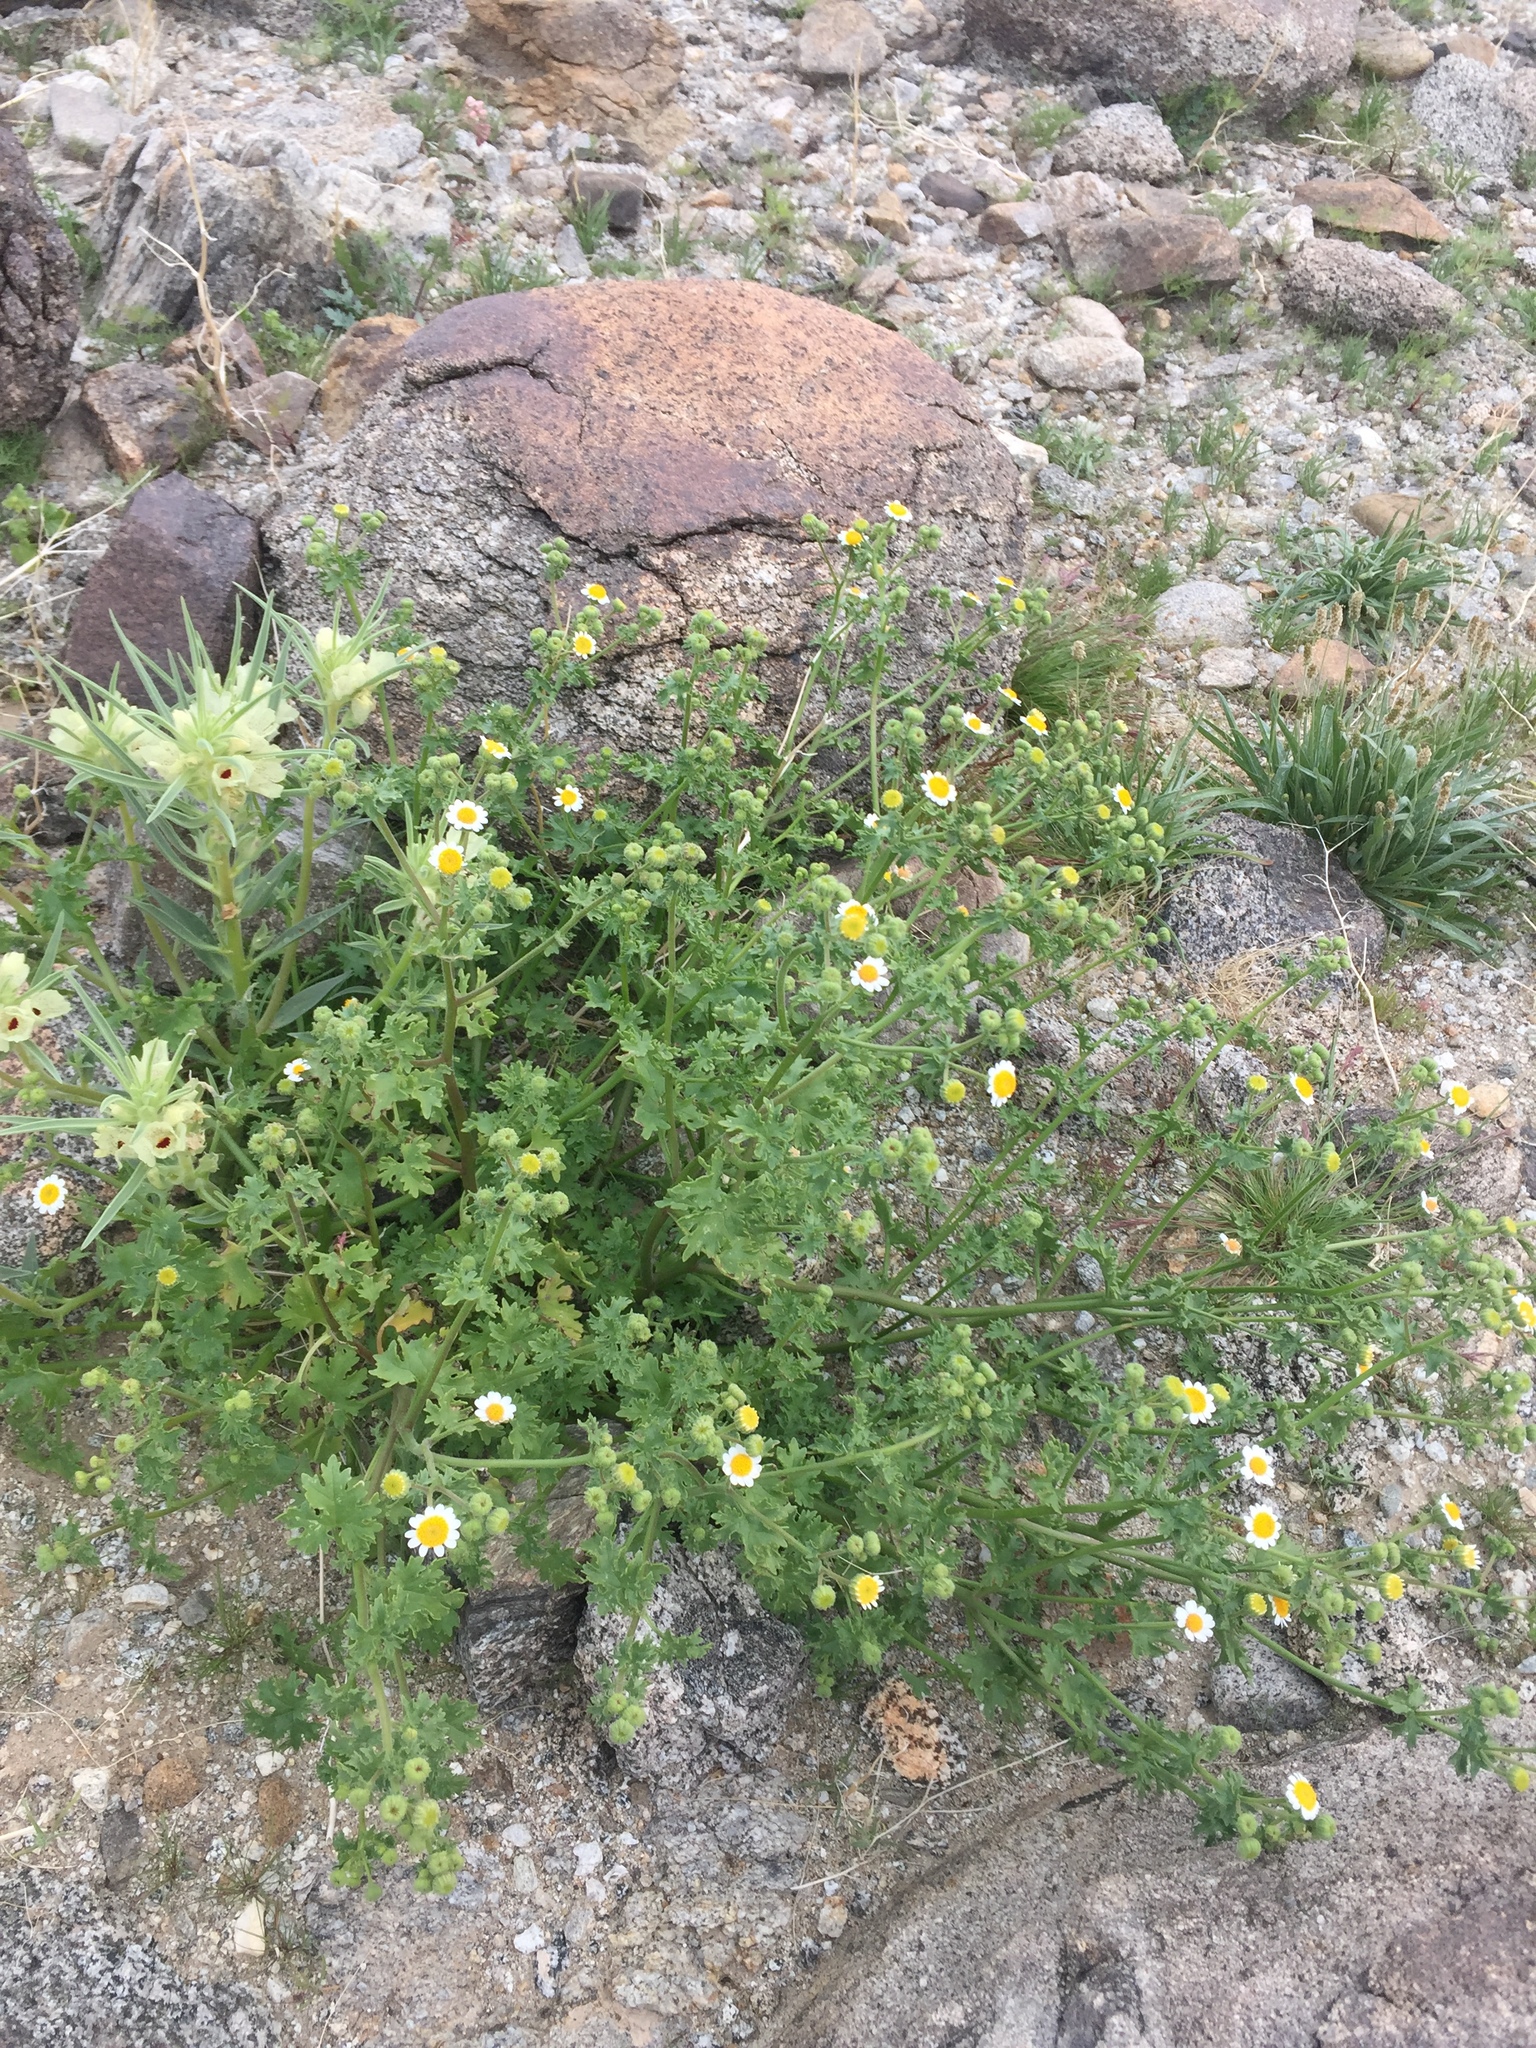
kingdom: Plantae
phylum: Tracheophyta
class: Magnoliopsida
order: Asterales
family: Asteraceae
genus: Laphamia
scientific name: Laphamia emoryi
